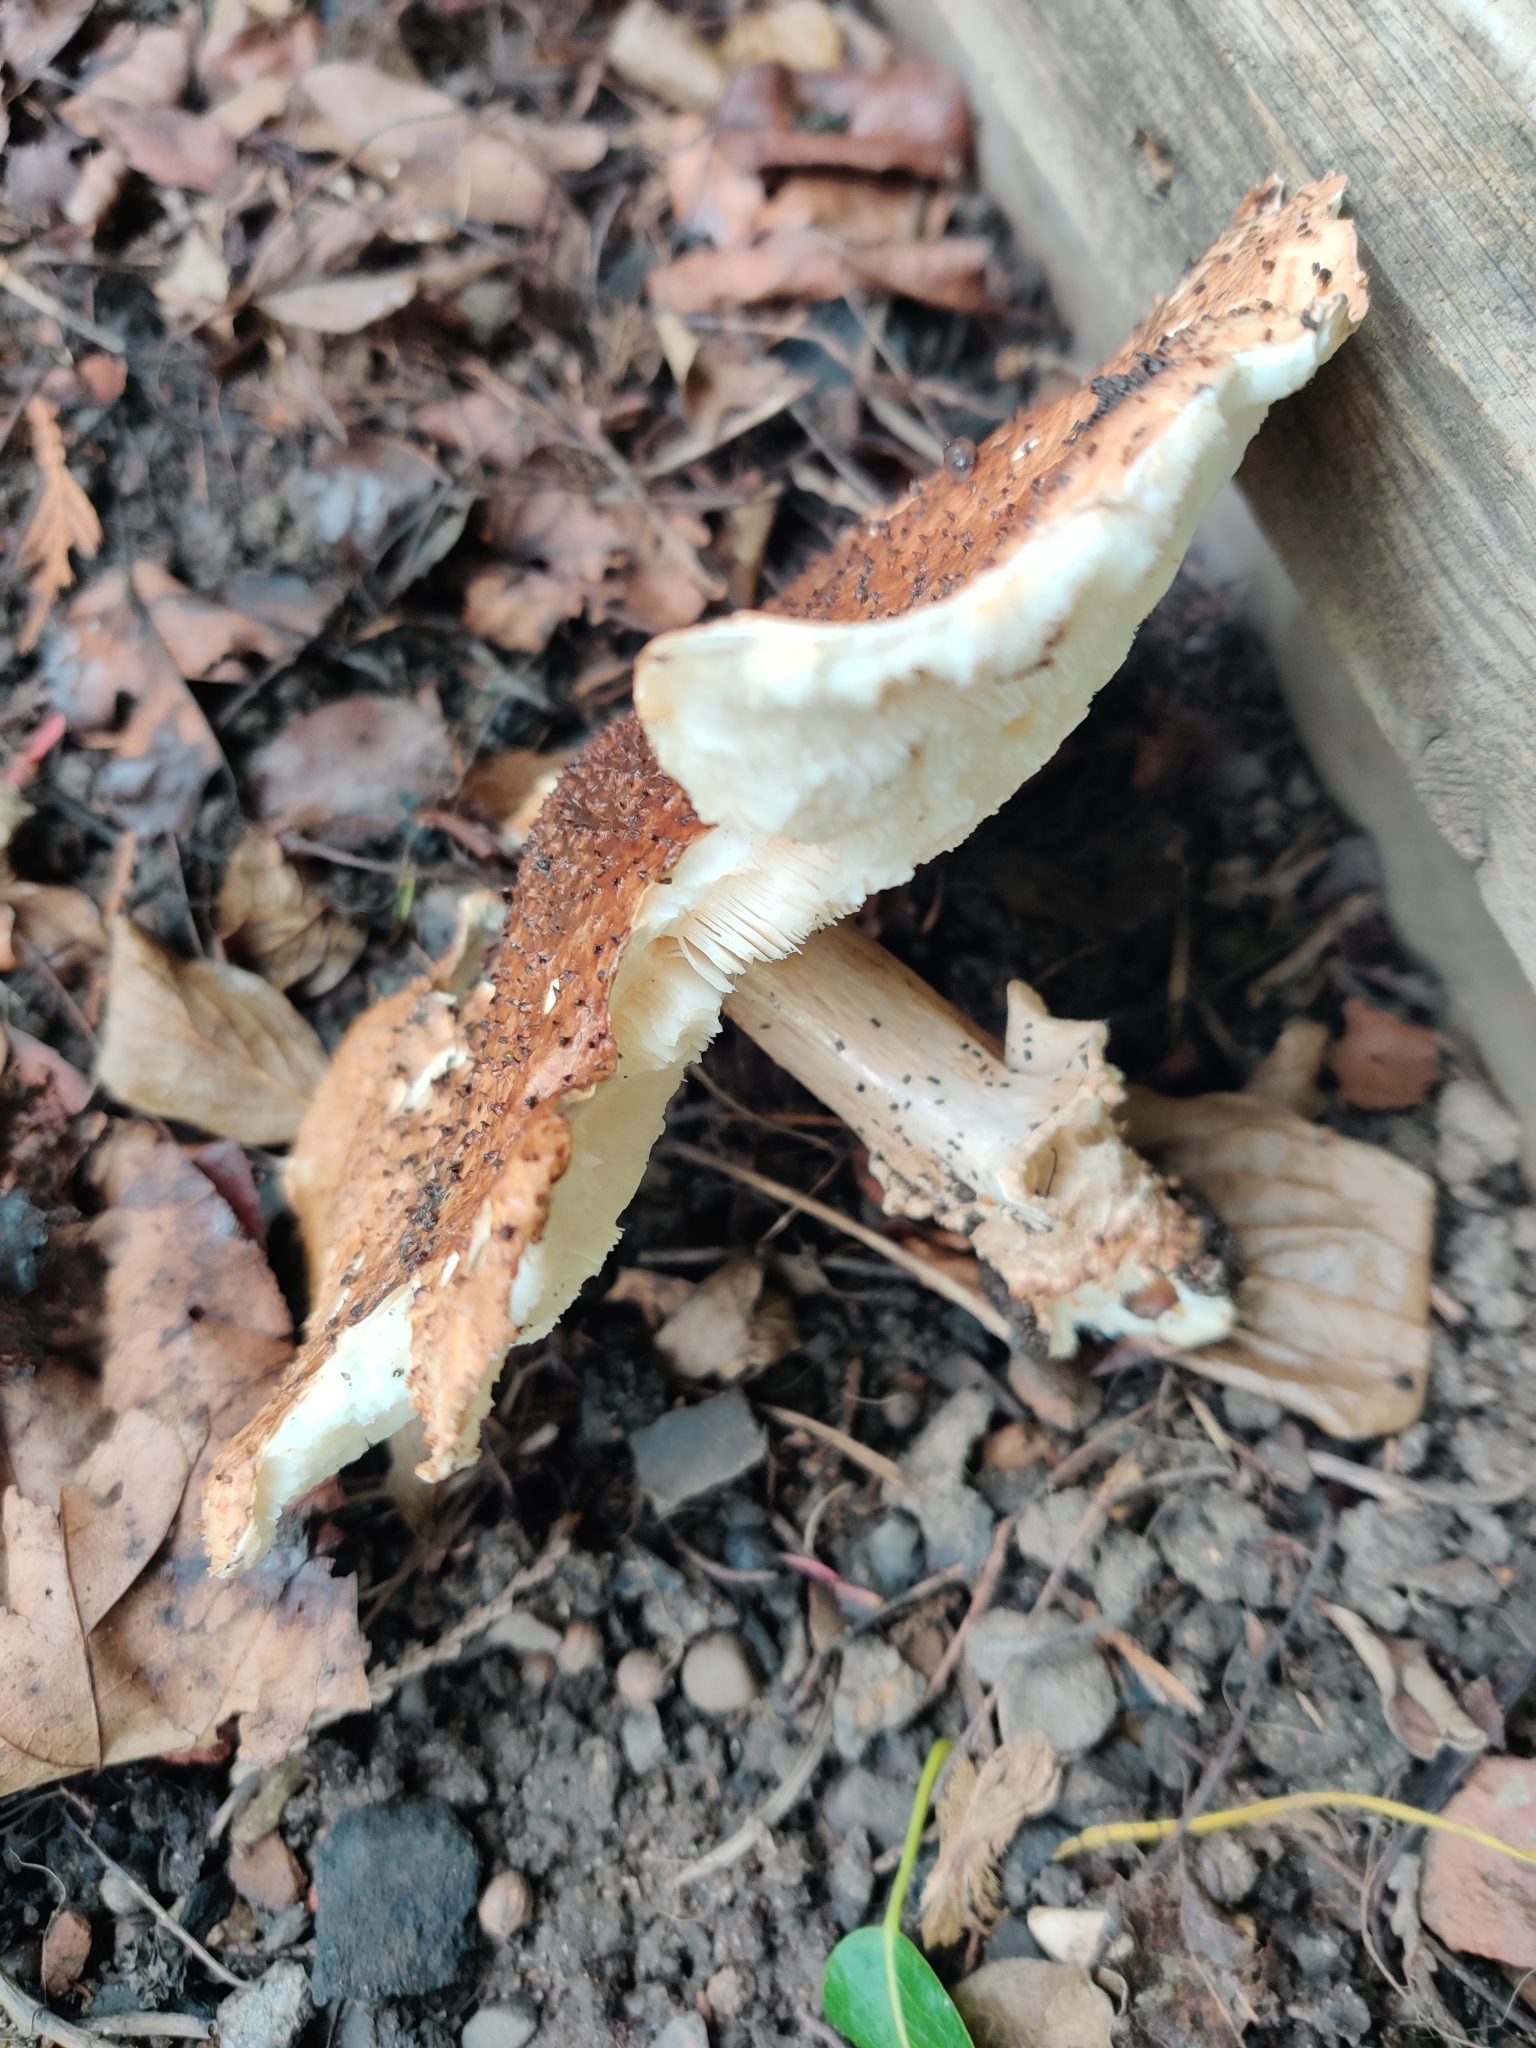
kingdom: Fungi
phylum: Basidiomycota
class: Agaricomycetes
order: Agaricales
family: Agaricaceae
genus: Echinoderma
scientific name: Echinoderma asperum
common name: Freckled dapperling
